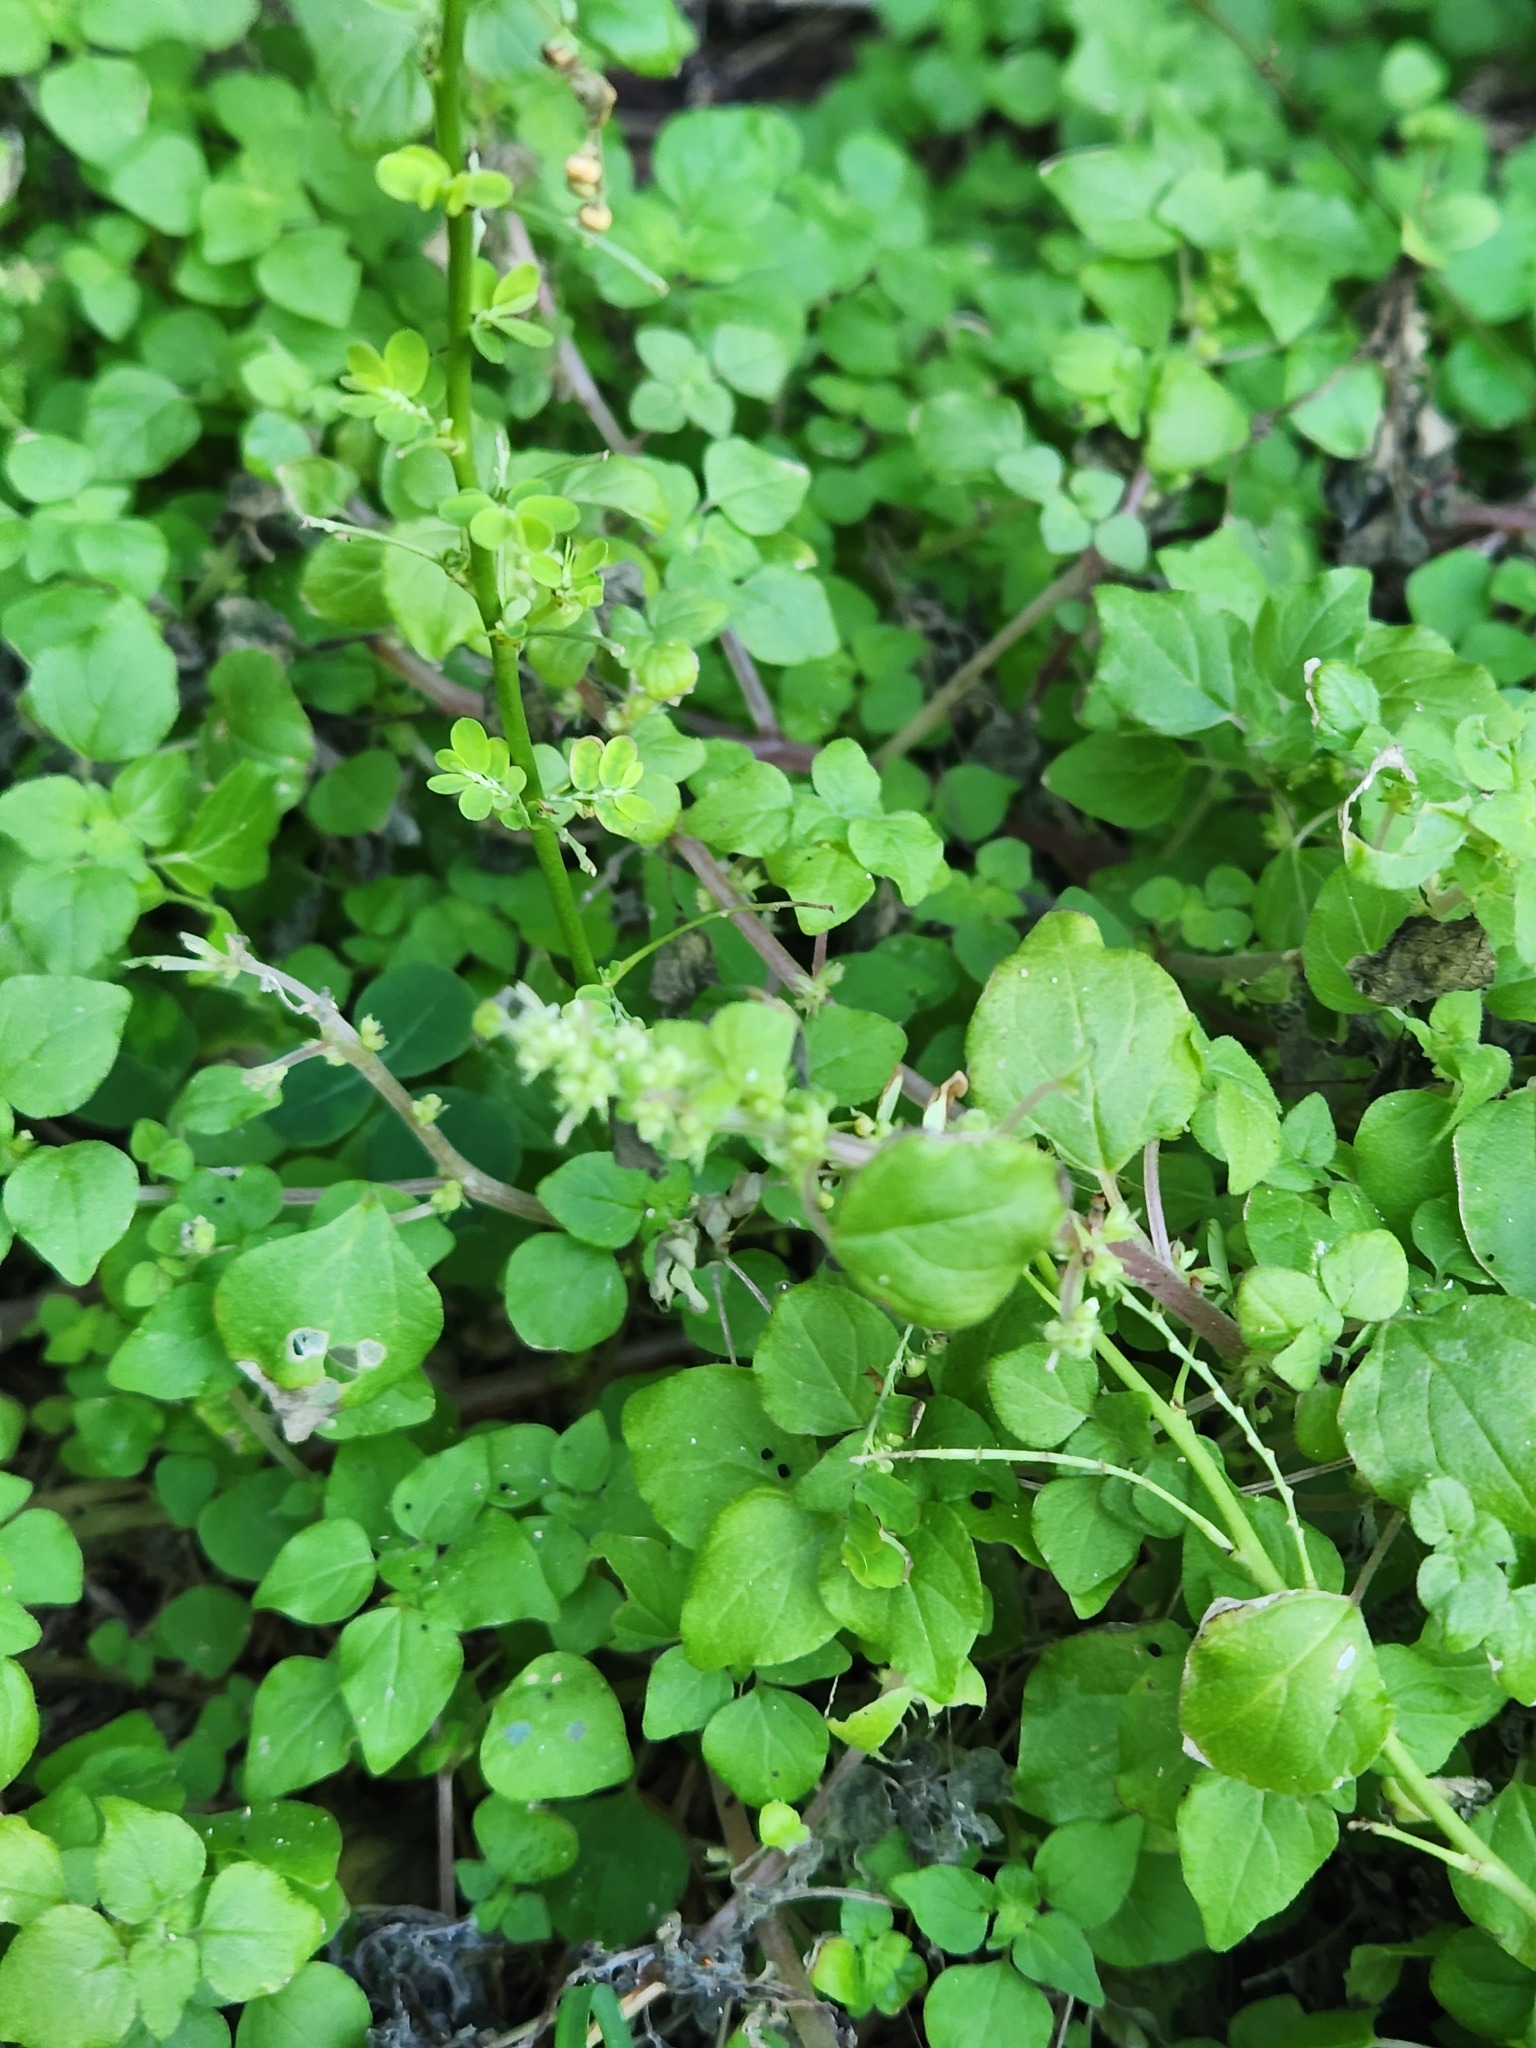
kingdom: Plantae
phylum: Tracheophyta
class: Magnoliopsida
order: Rosales
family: Urticaceae
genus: Parietaria
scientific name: Parietaria floridana
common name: Florida pellitory
